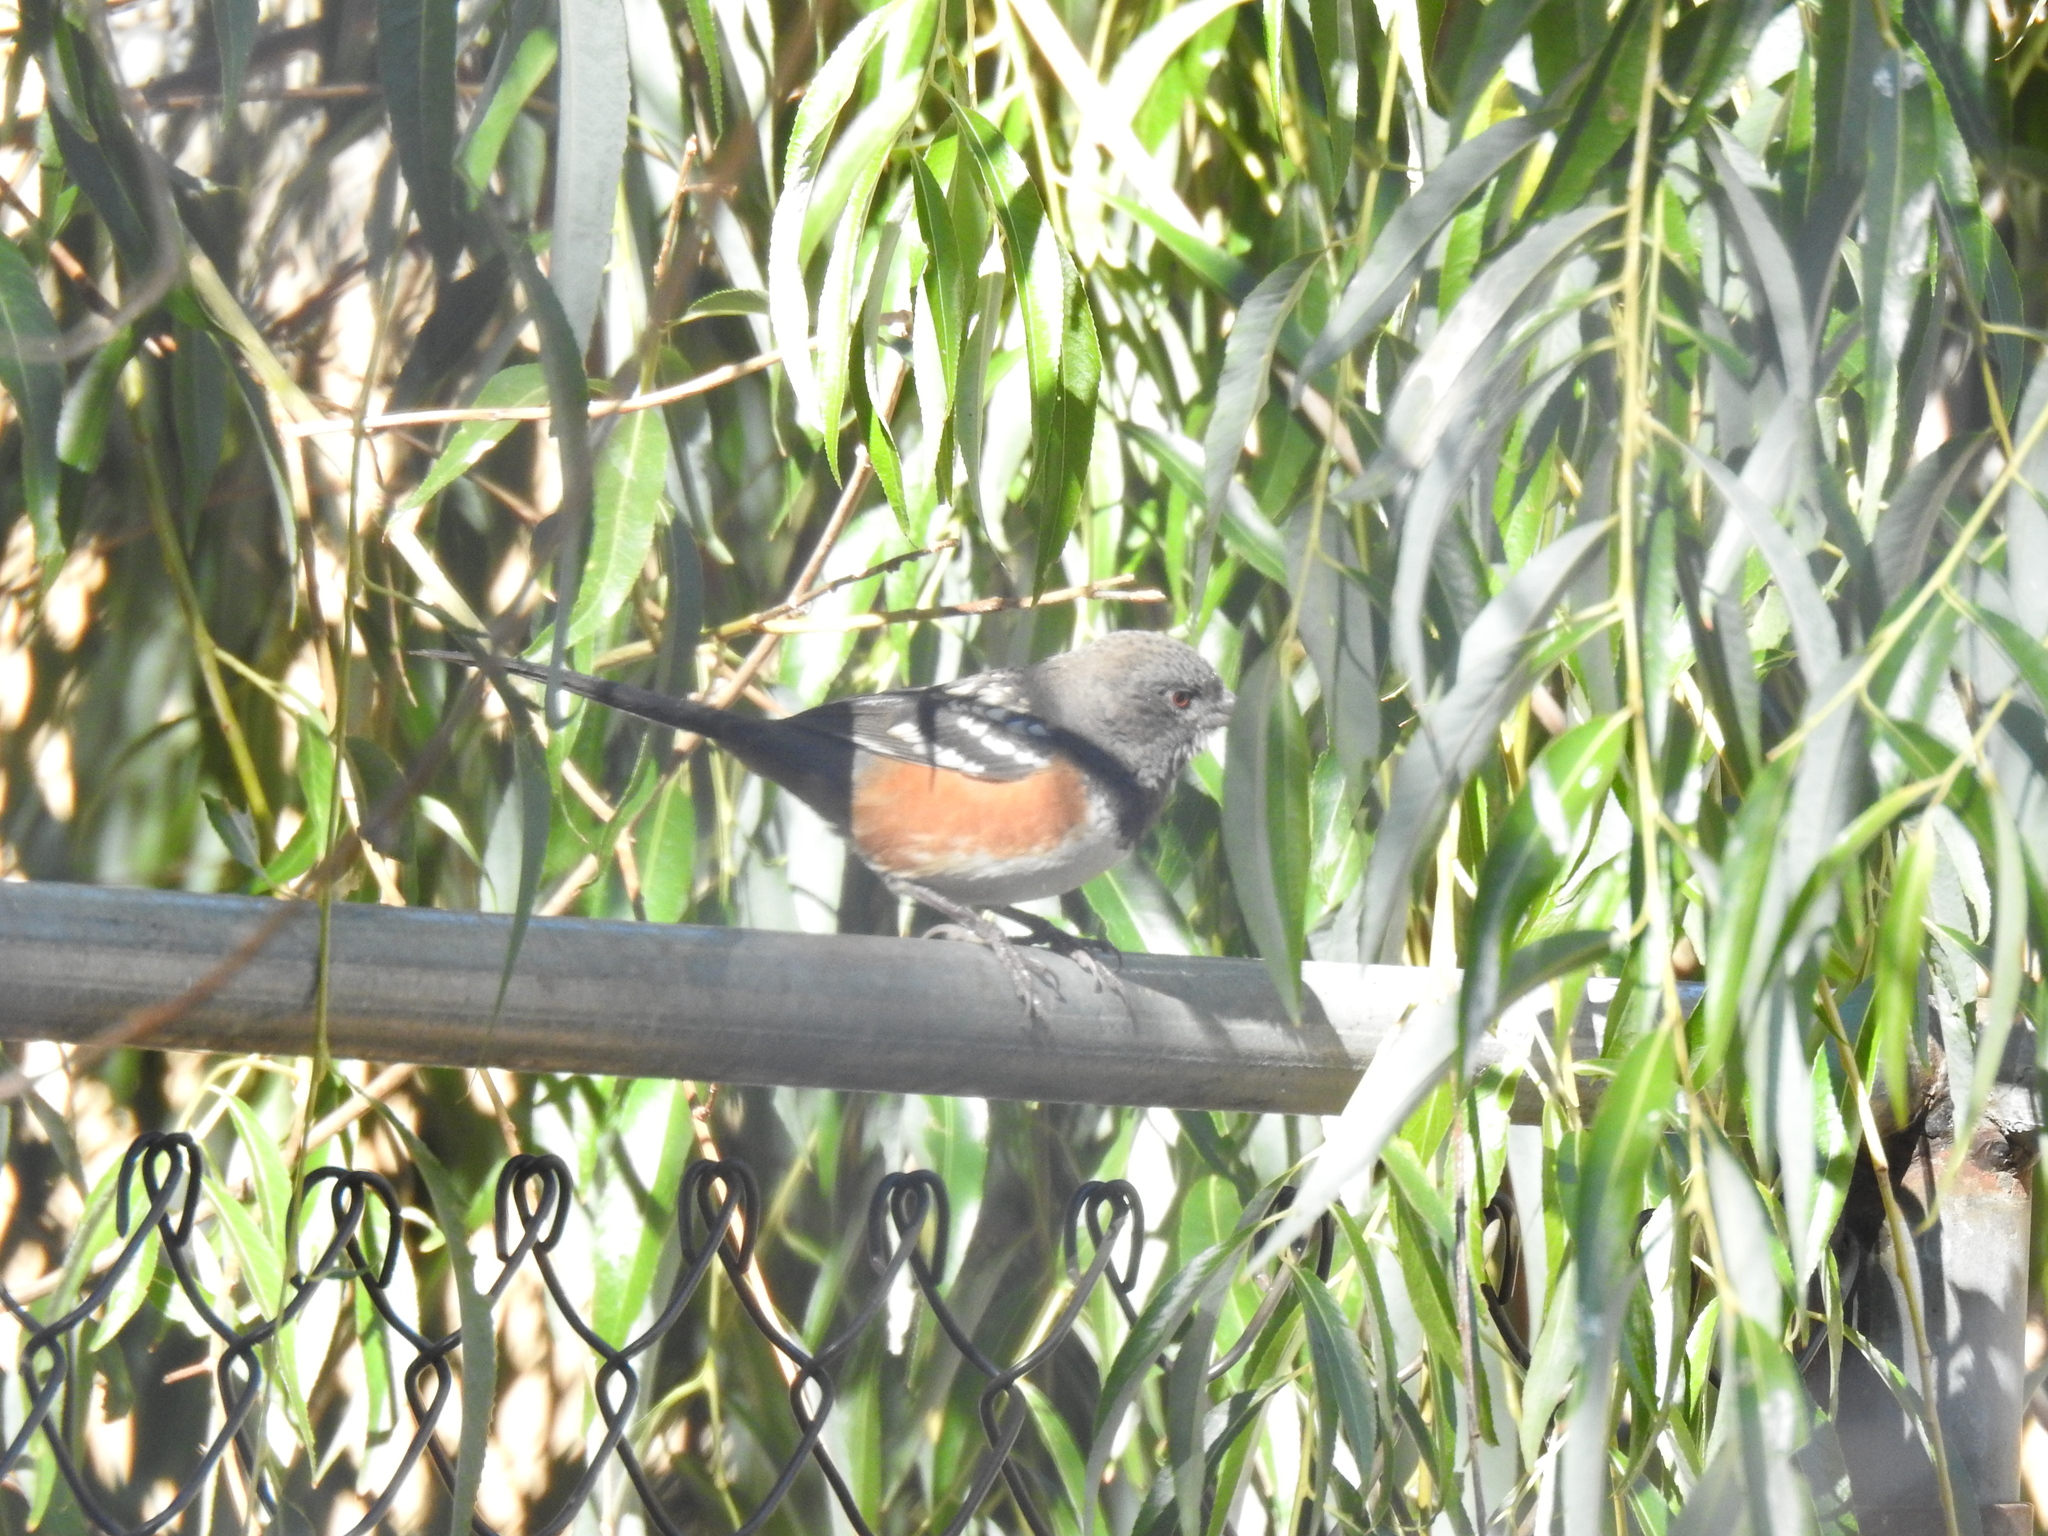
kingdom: Animalia
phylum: Chordata
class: Aves
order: Passeriformes
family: Passerellidae
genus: Pipilo
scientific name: Pipilo maculatus
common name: Spotted towhee
